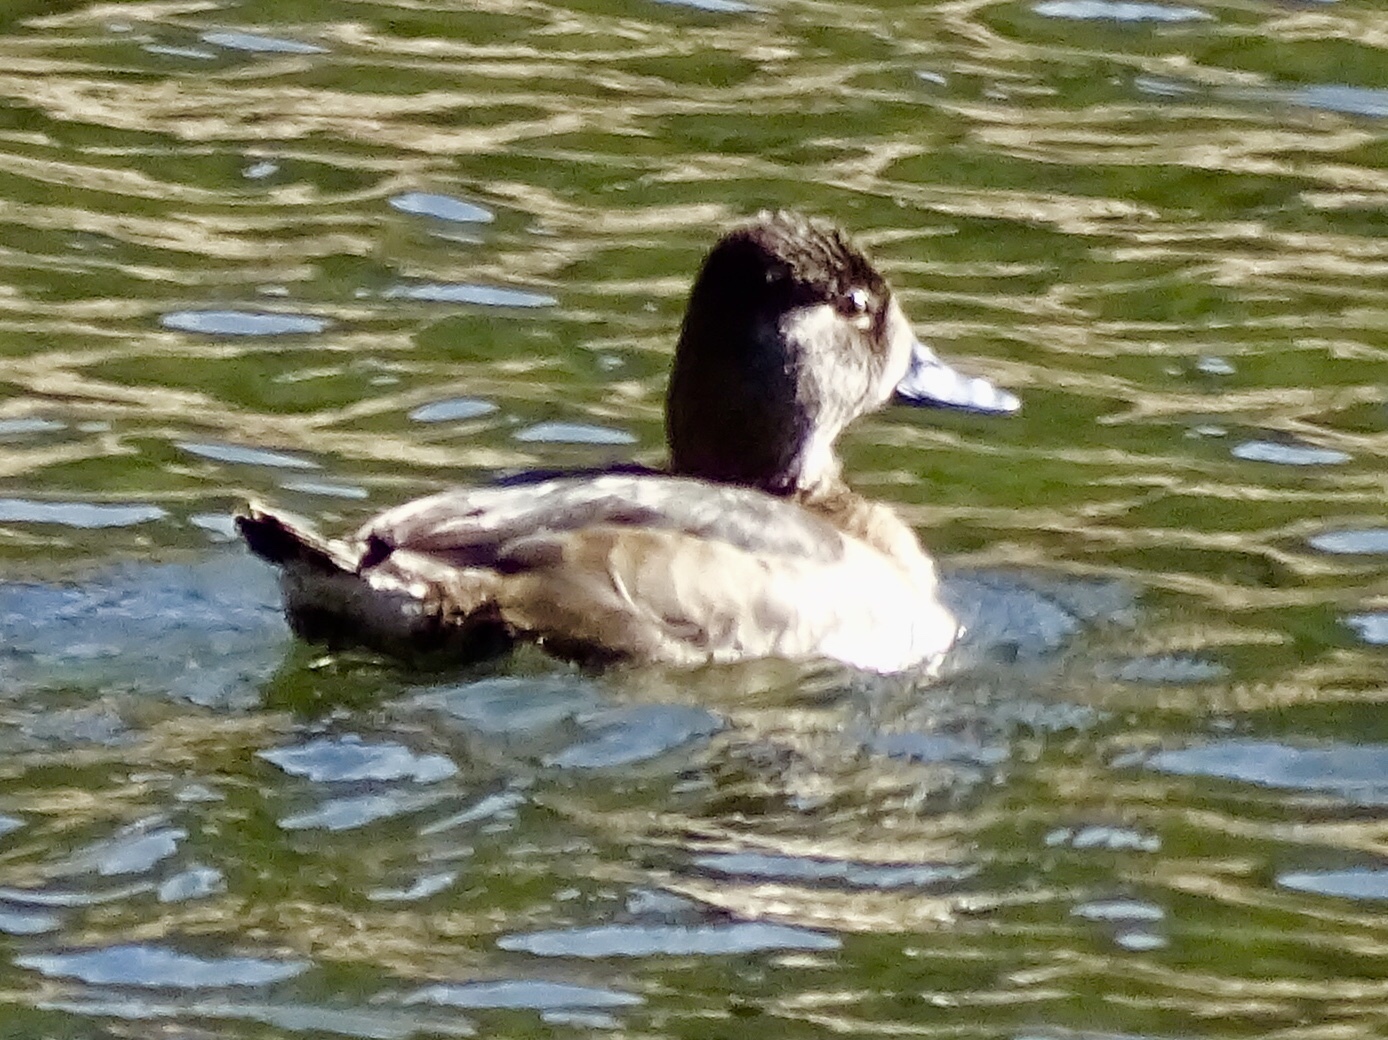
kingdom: Animalia
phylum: Chordata
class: Aves
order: Anseriformes
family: Anatidae
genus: Aythya
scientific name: Aythya collaris
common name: Ring-necked duck
